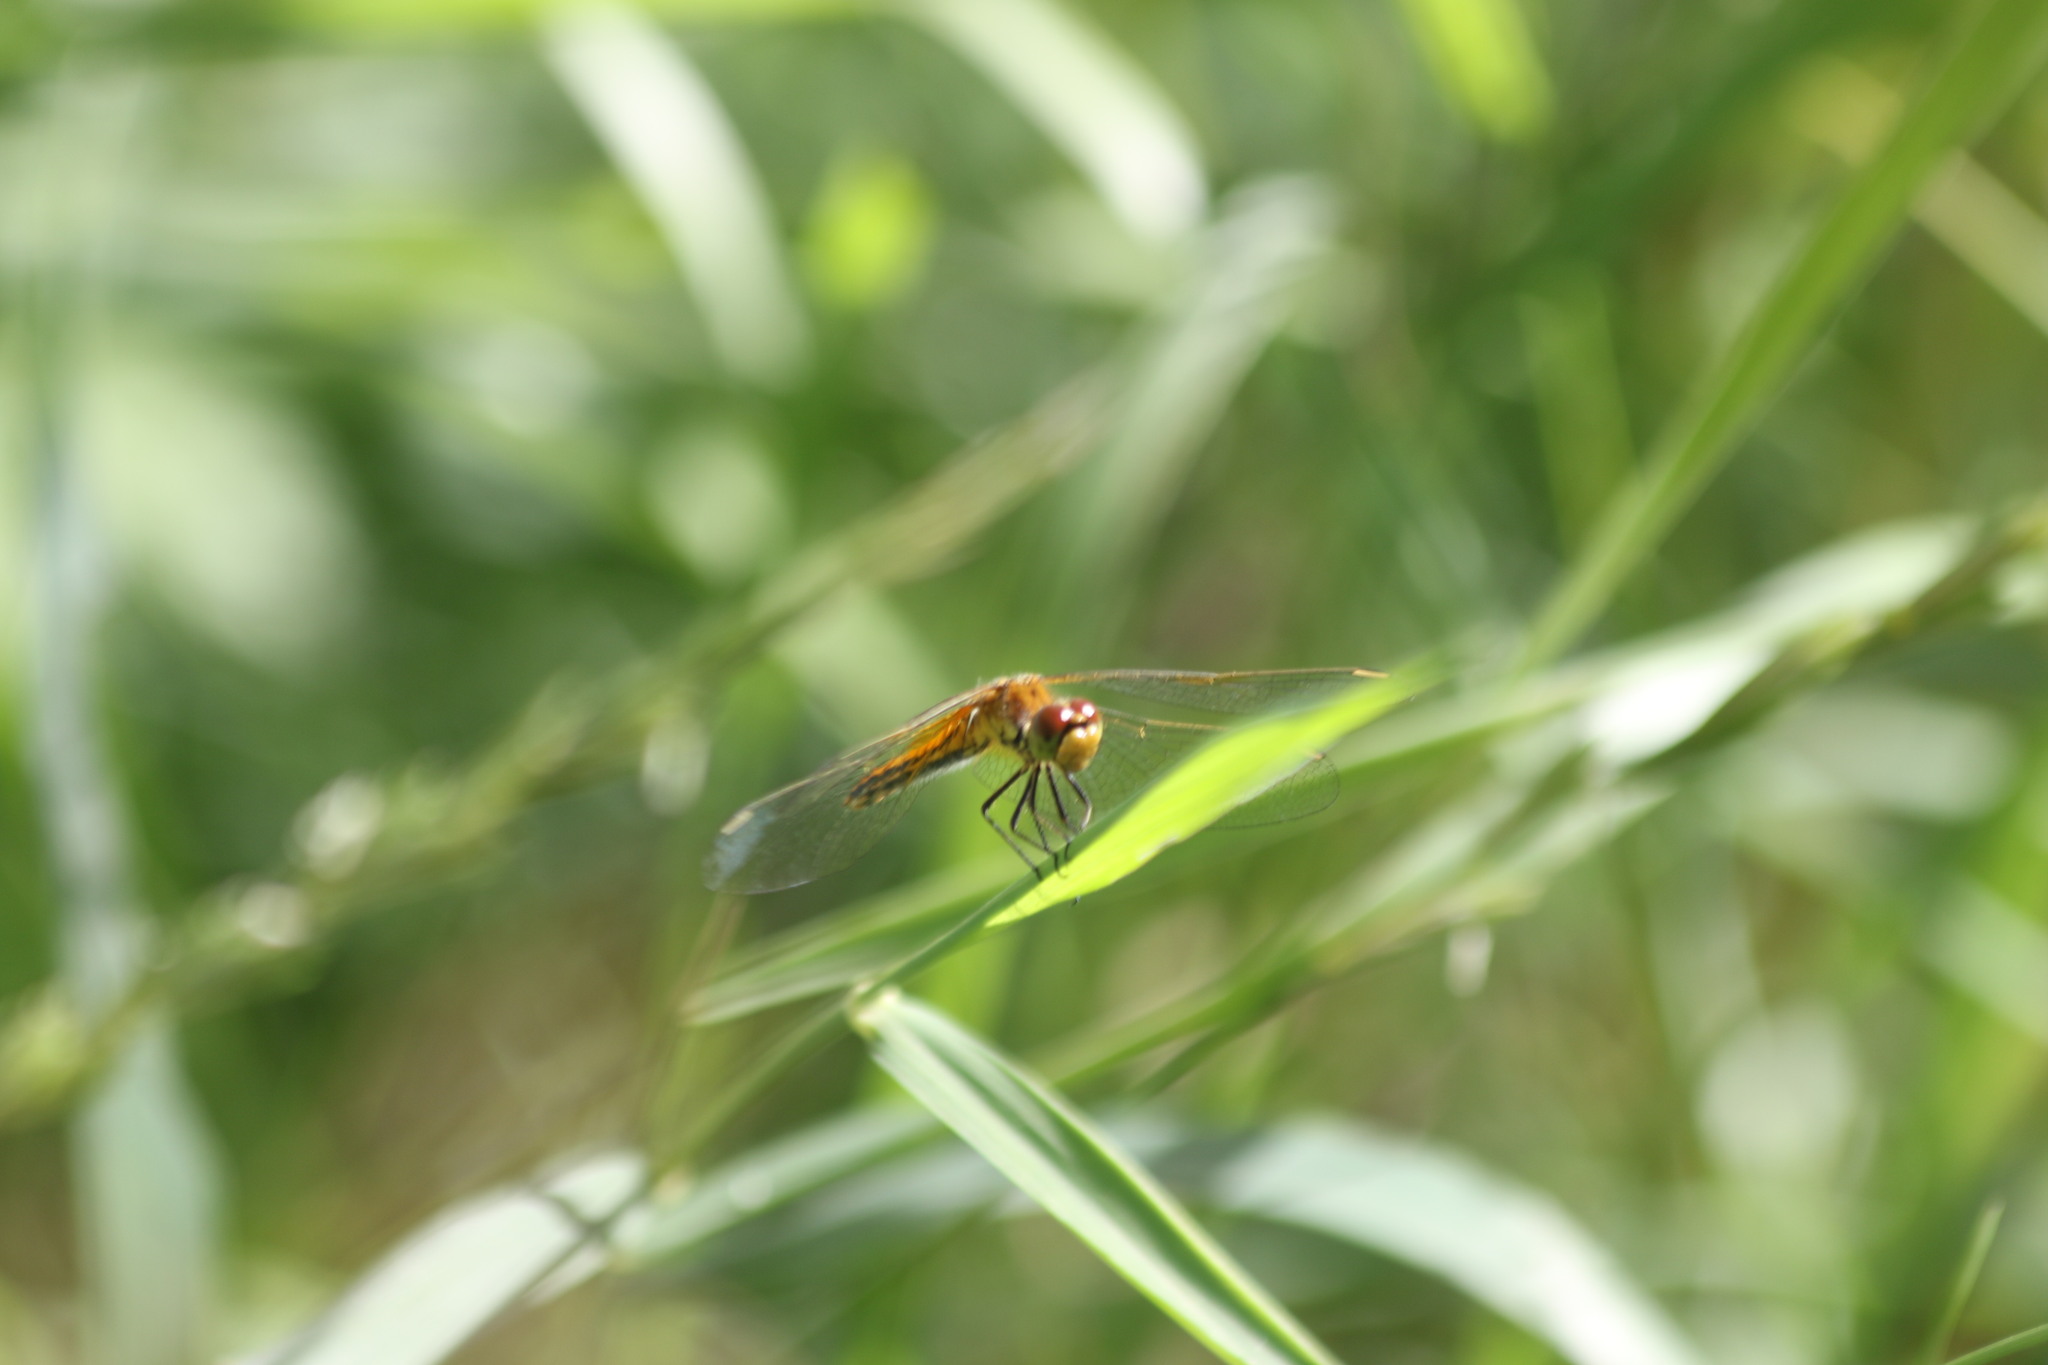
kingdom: Animalia
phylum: Arthropoda
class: Insecta
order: Odonata
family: Libellulidae
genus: Sympetrum
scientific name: Sympetrum flaveolum
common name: Yellow-winged darter
